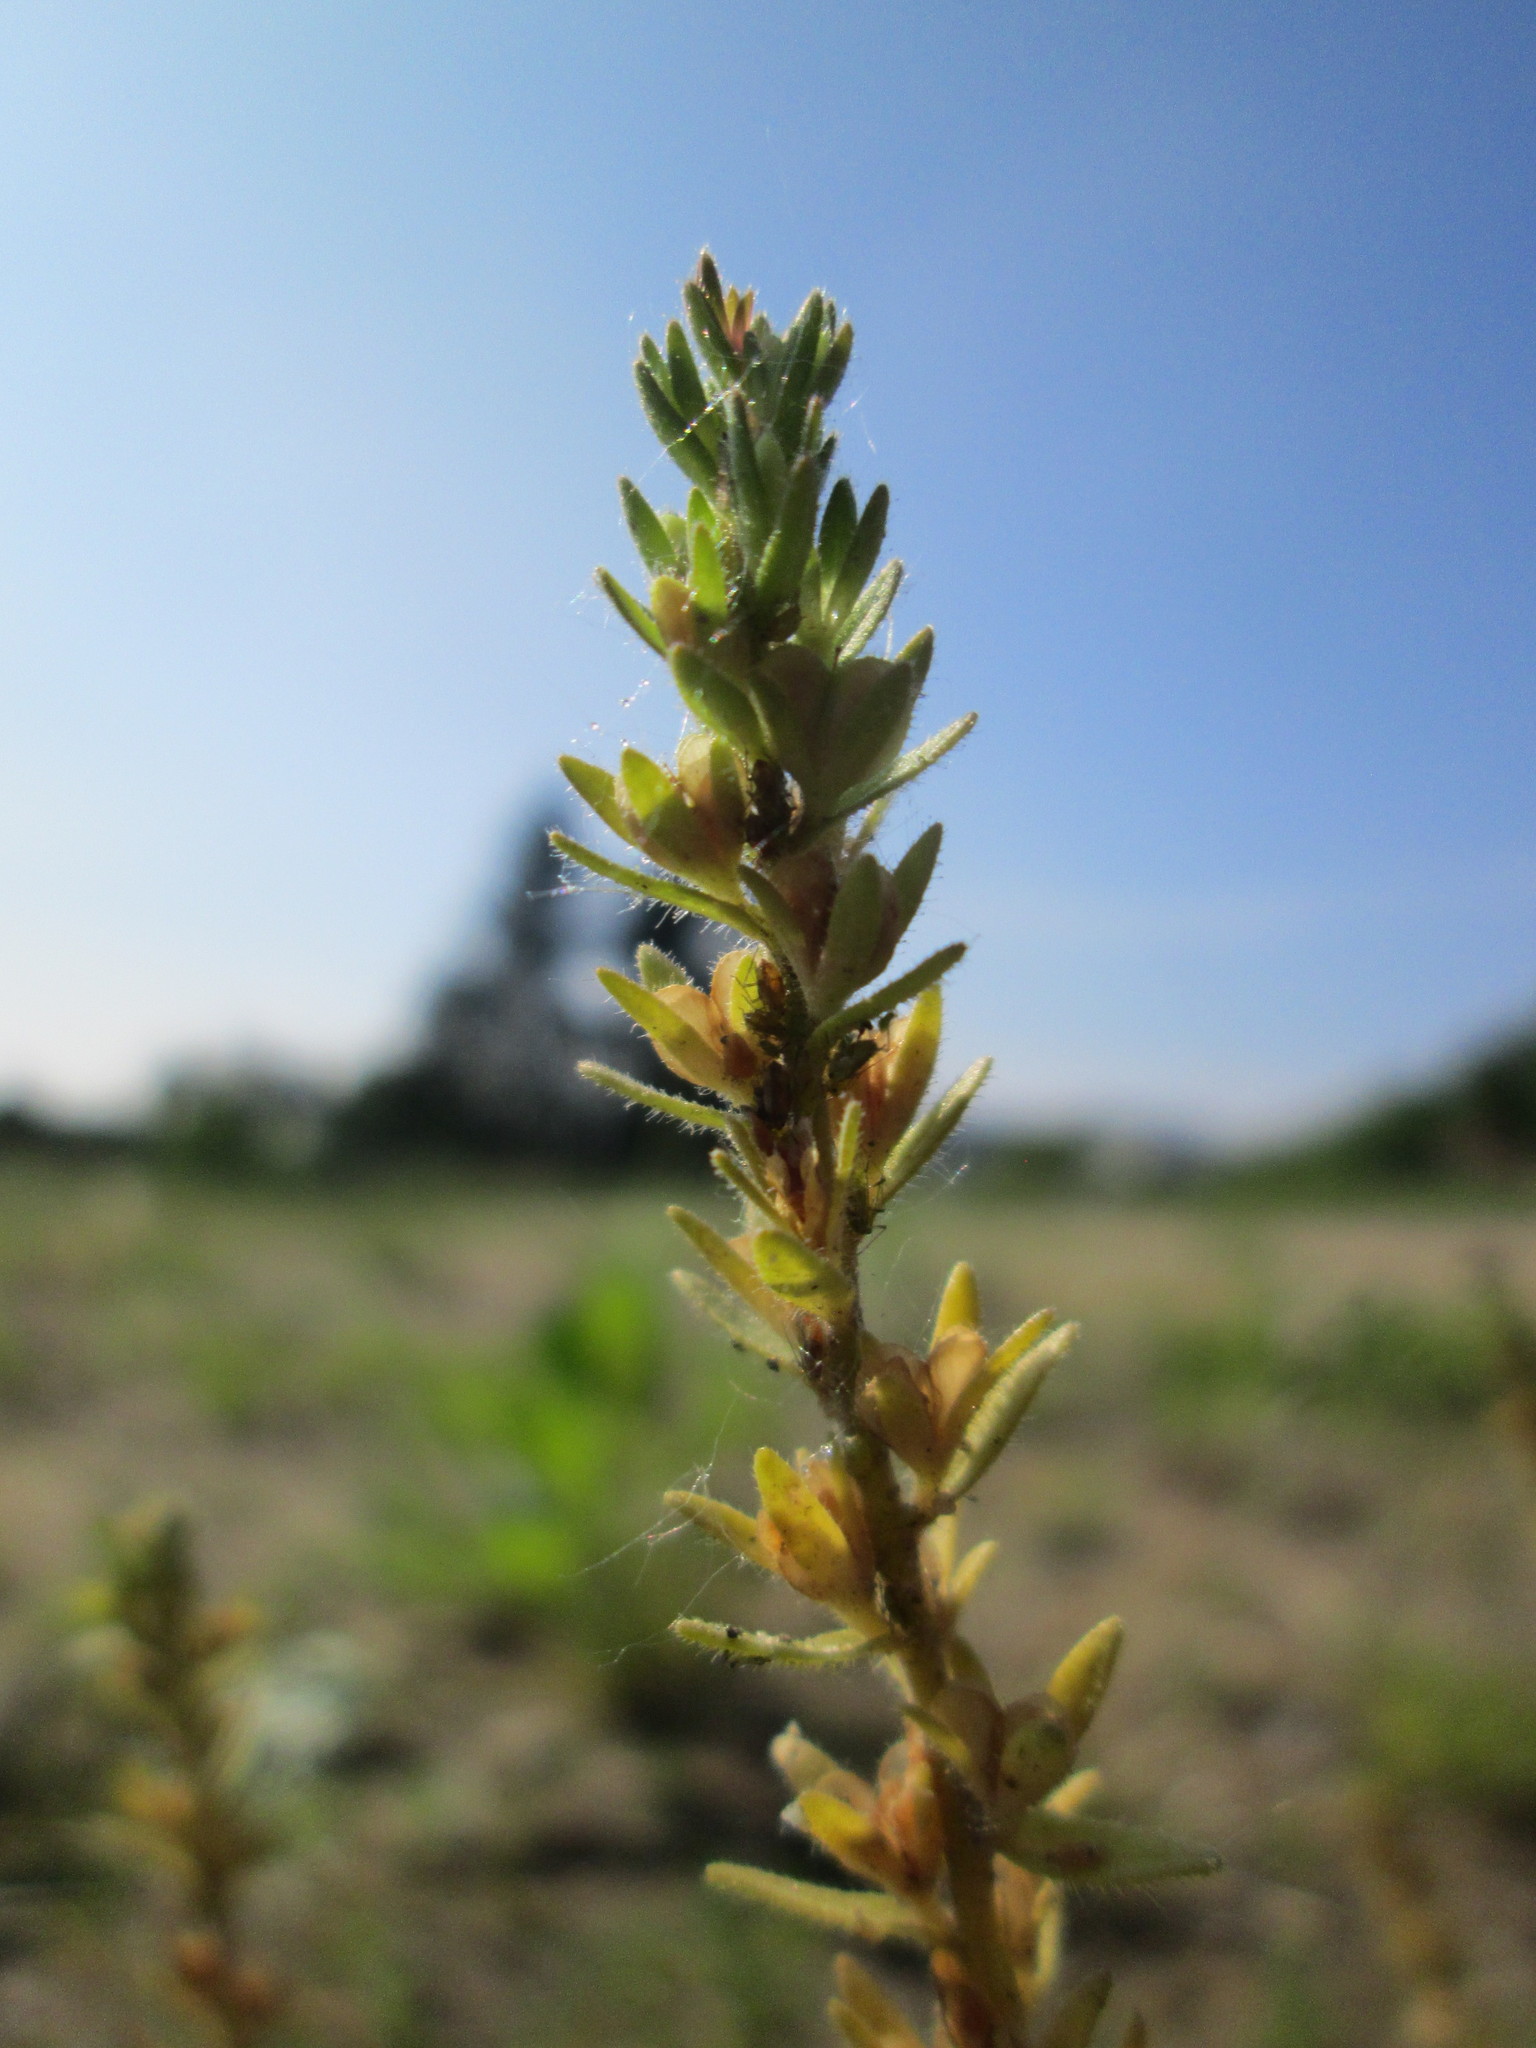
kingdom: Plantae
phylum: Tracheophyta
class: Magnoliopsida
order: Lamiales
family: Plantaginaceae
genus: Veronica
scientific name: Veronica arvensis
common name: Corn speedwell
